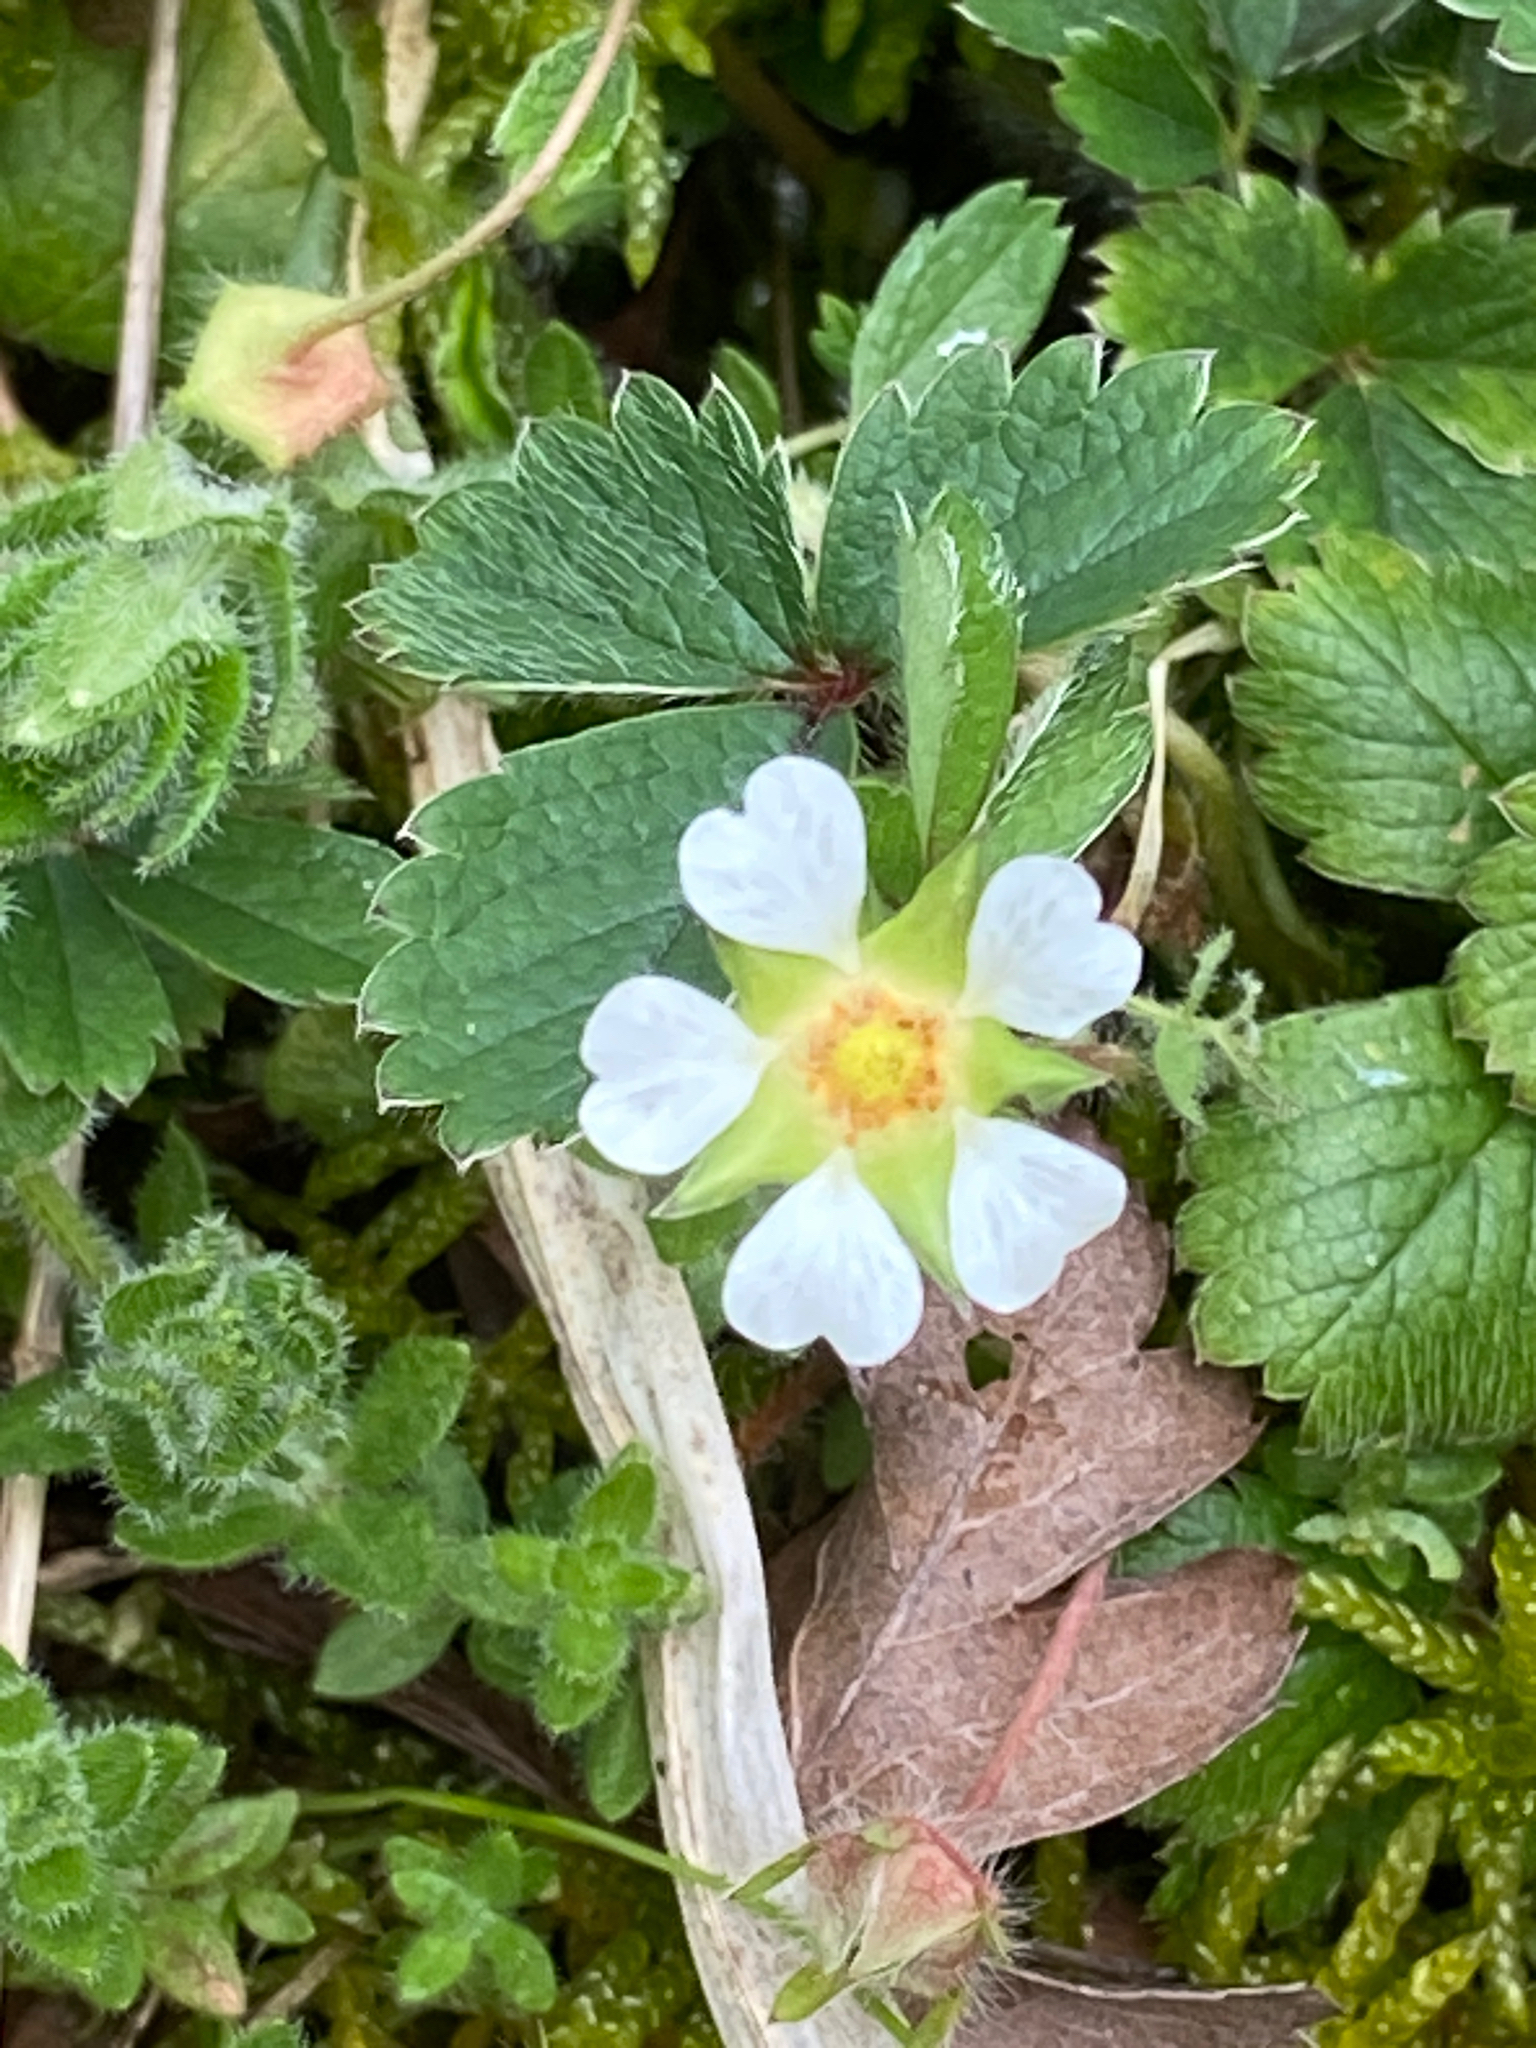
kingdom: Plantae
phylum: Tracheophyta
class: Magnoliopsida
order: Rosales
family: Rosaceae
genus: Potentilla
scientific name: Potentilla sterilis
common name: Barren strawberry
